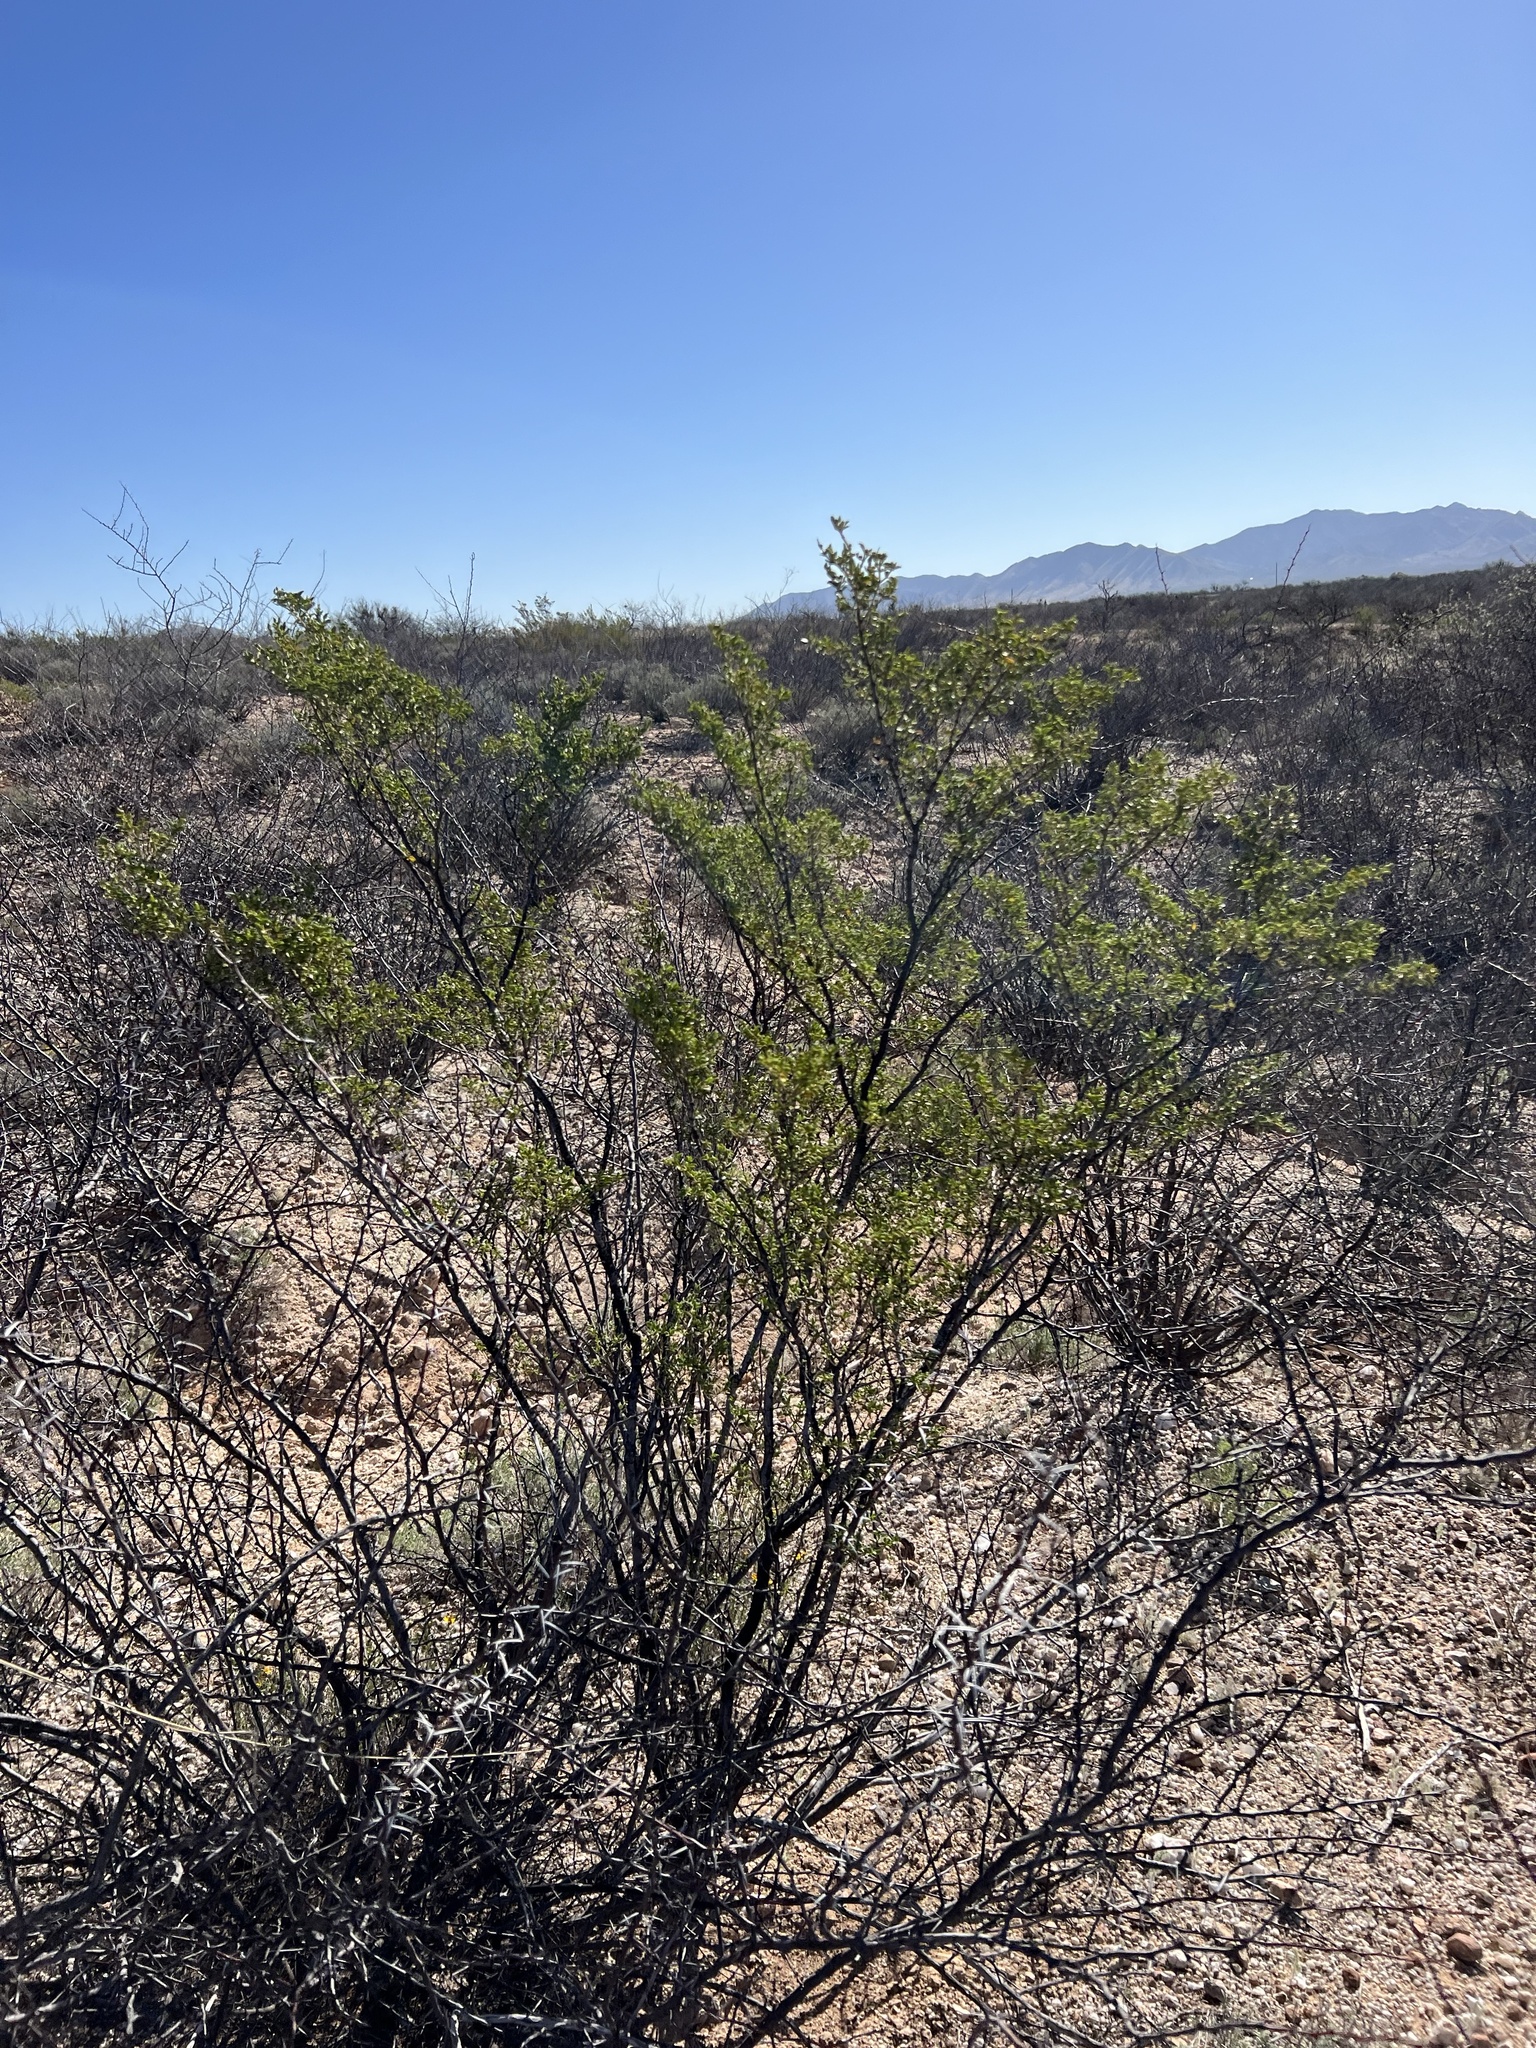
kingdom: Plantae
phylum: Tracheophyta
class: Magnoliopsida
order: Zygophyllales
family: Zygophyllaceae
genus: Larrea
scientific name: Larrea tridentata
